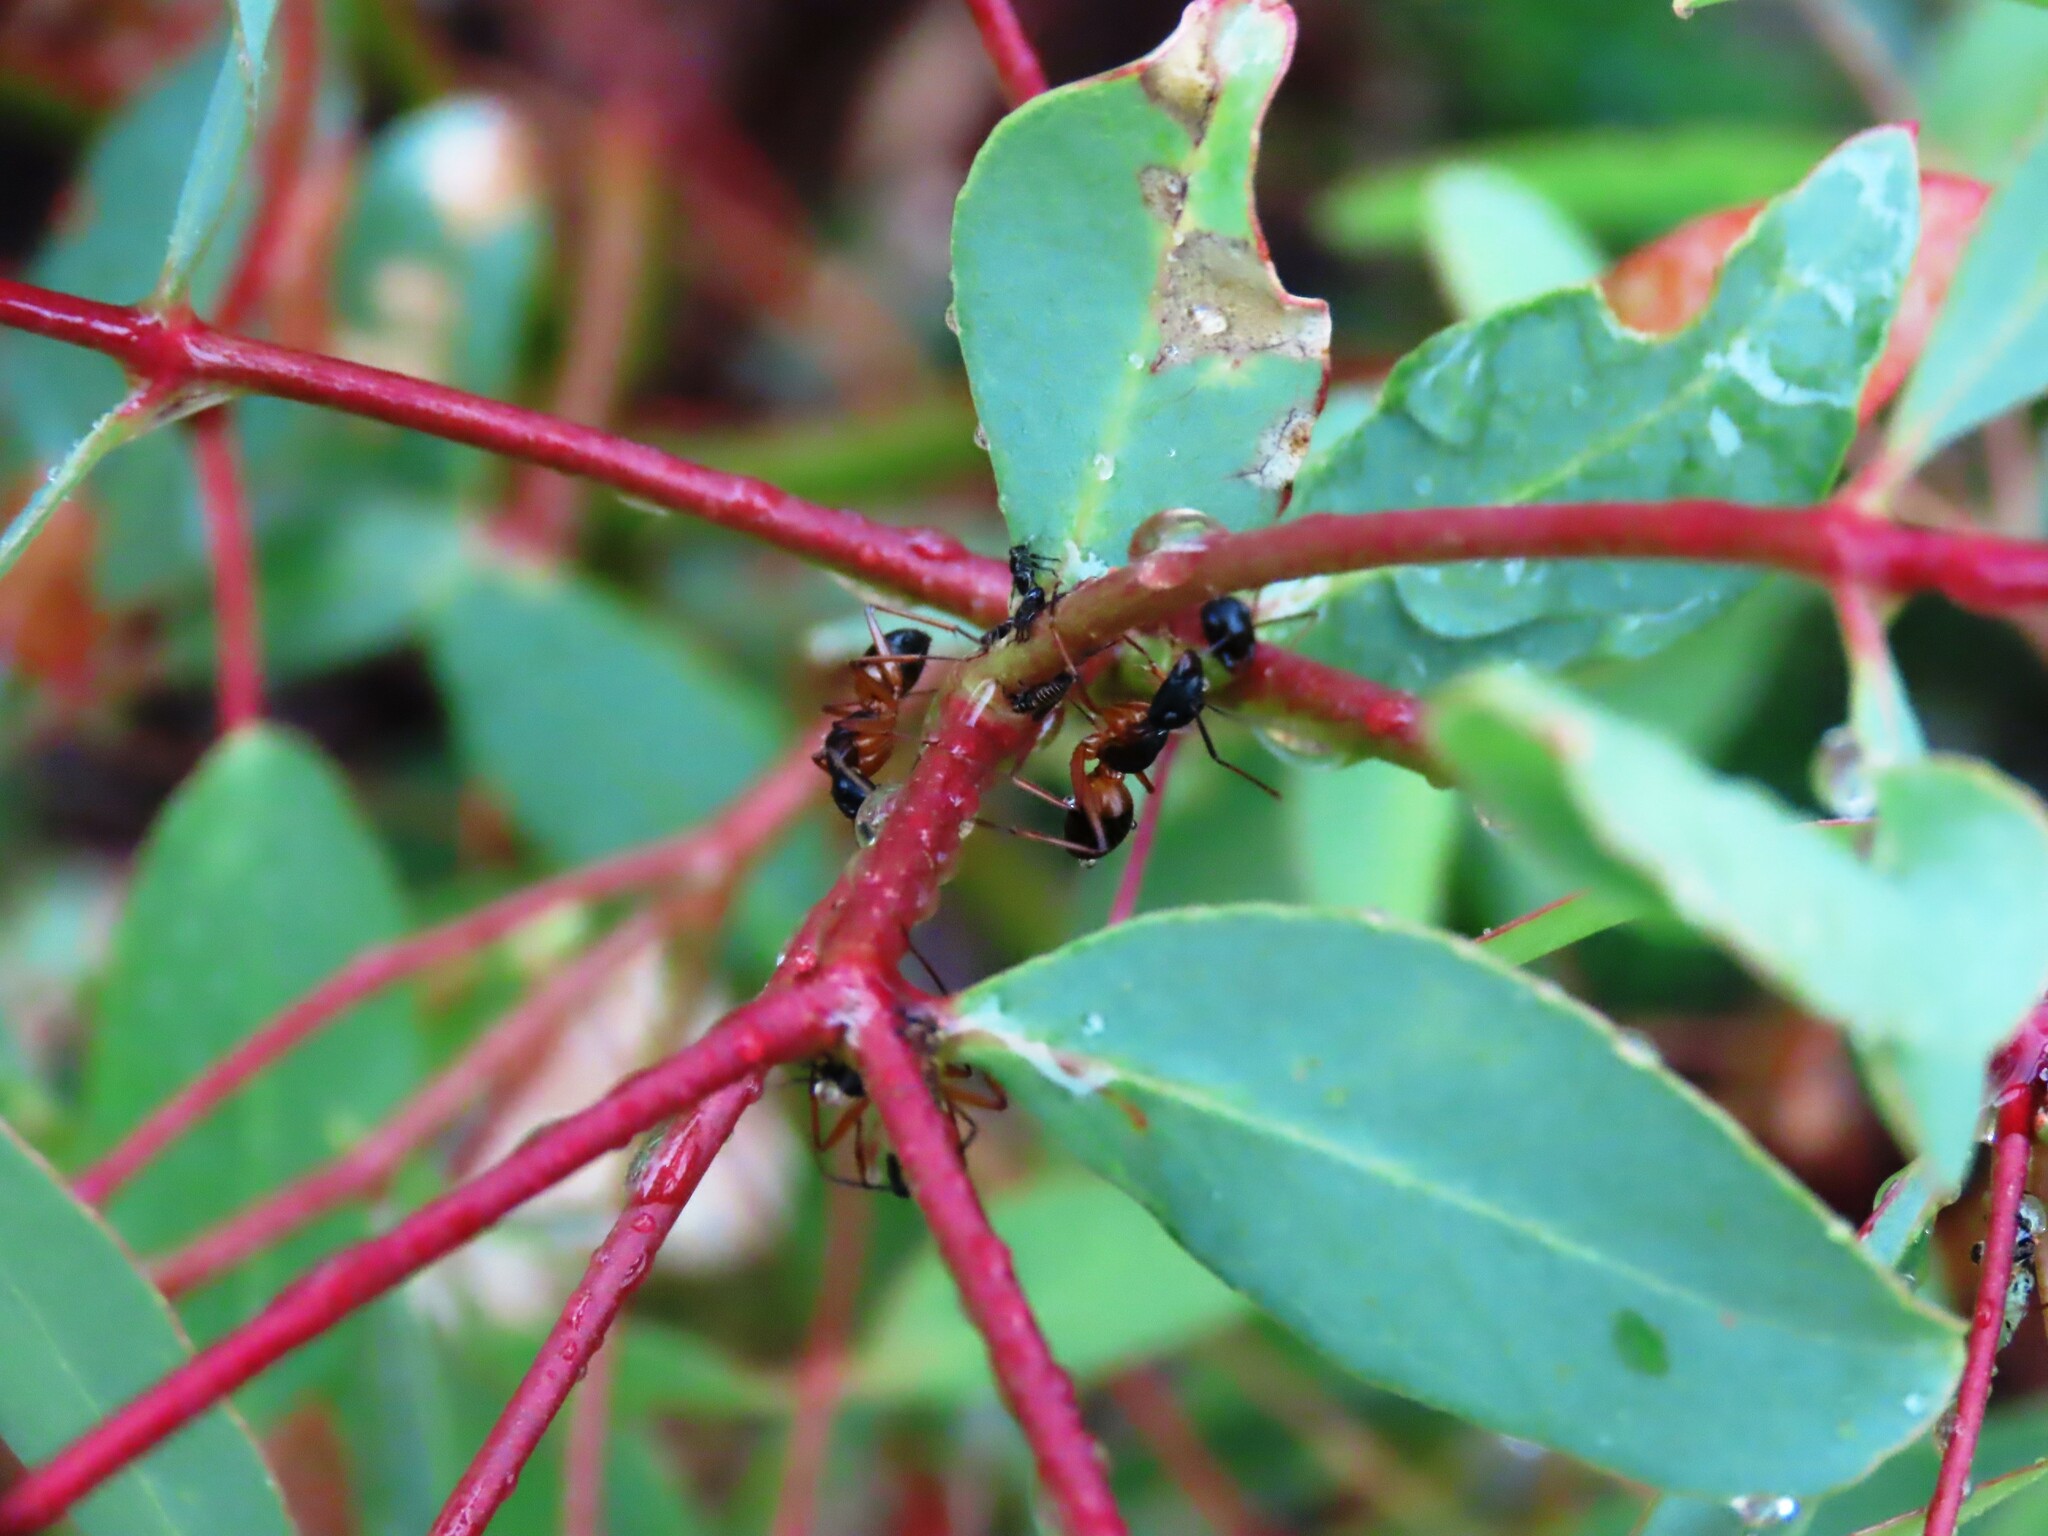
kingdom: Animalia
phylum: Arthropoda
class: Insecta
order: Hymenoptera
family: Formicidae
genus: Camponotus
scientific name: Camponotus consobrinus
